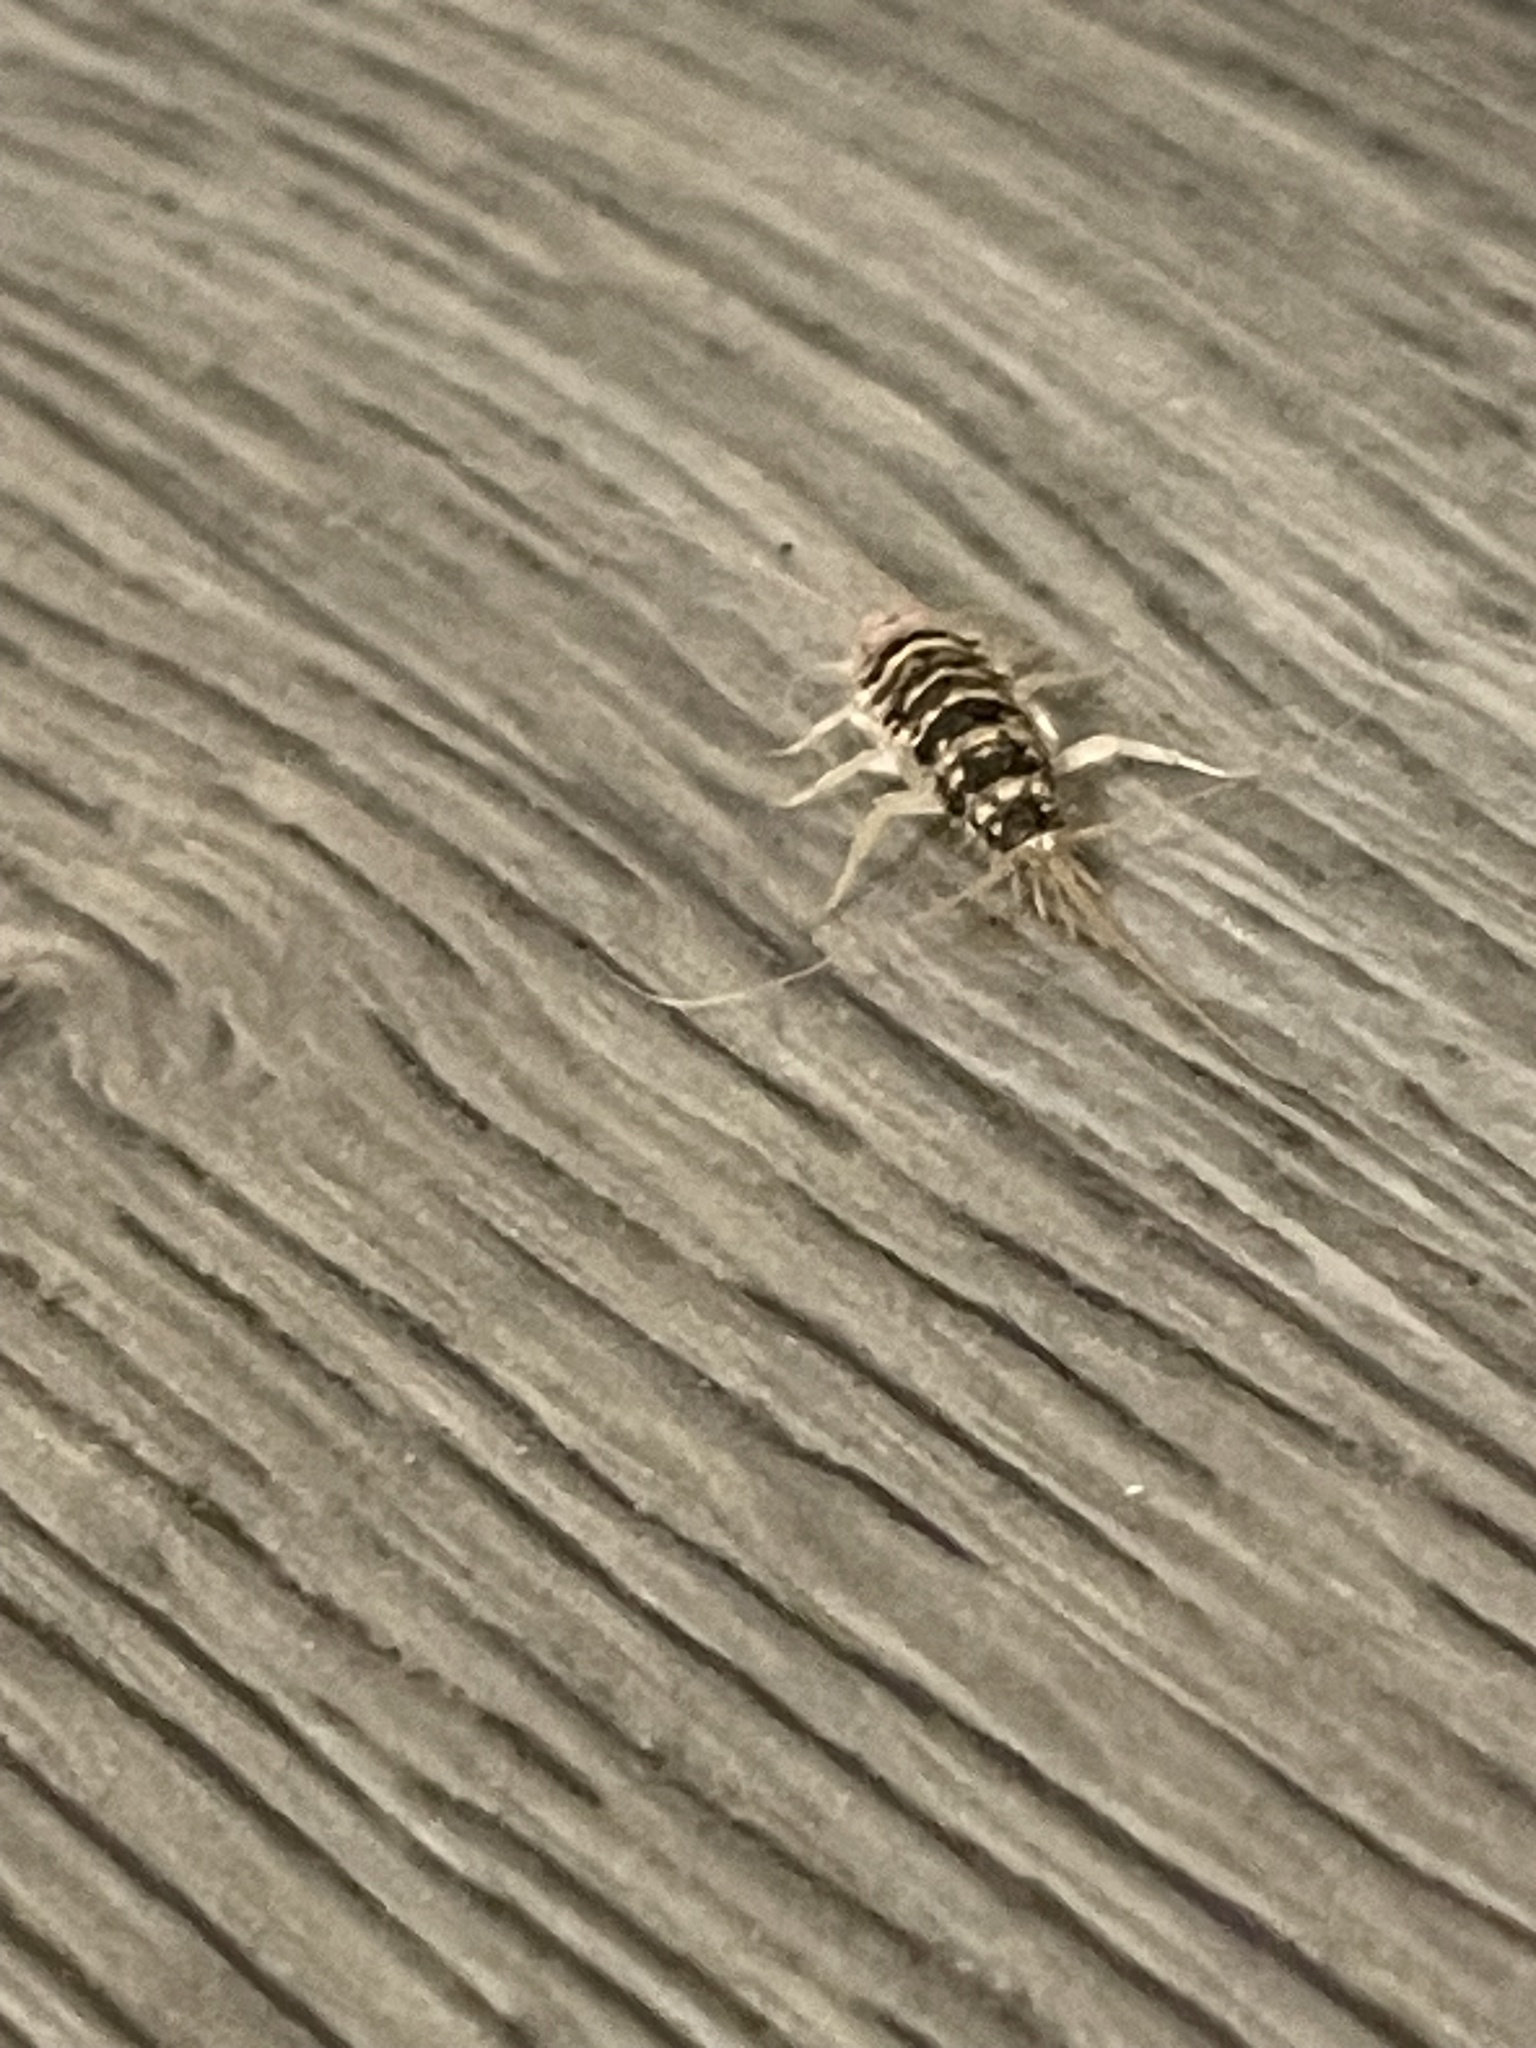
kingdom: Animalia
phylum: Arthropoda
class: Insecta
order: Zygentoma
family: Lepismatidae
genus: Thermobia
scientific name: Thermobia domestica
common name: Firebrat
